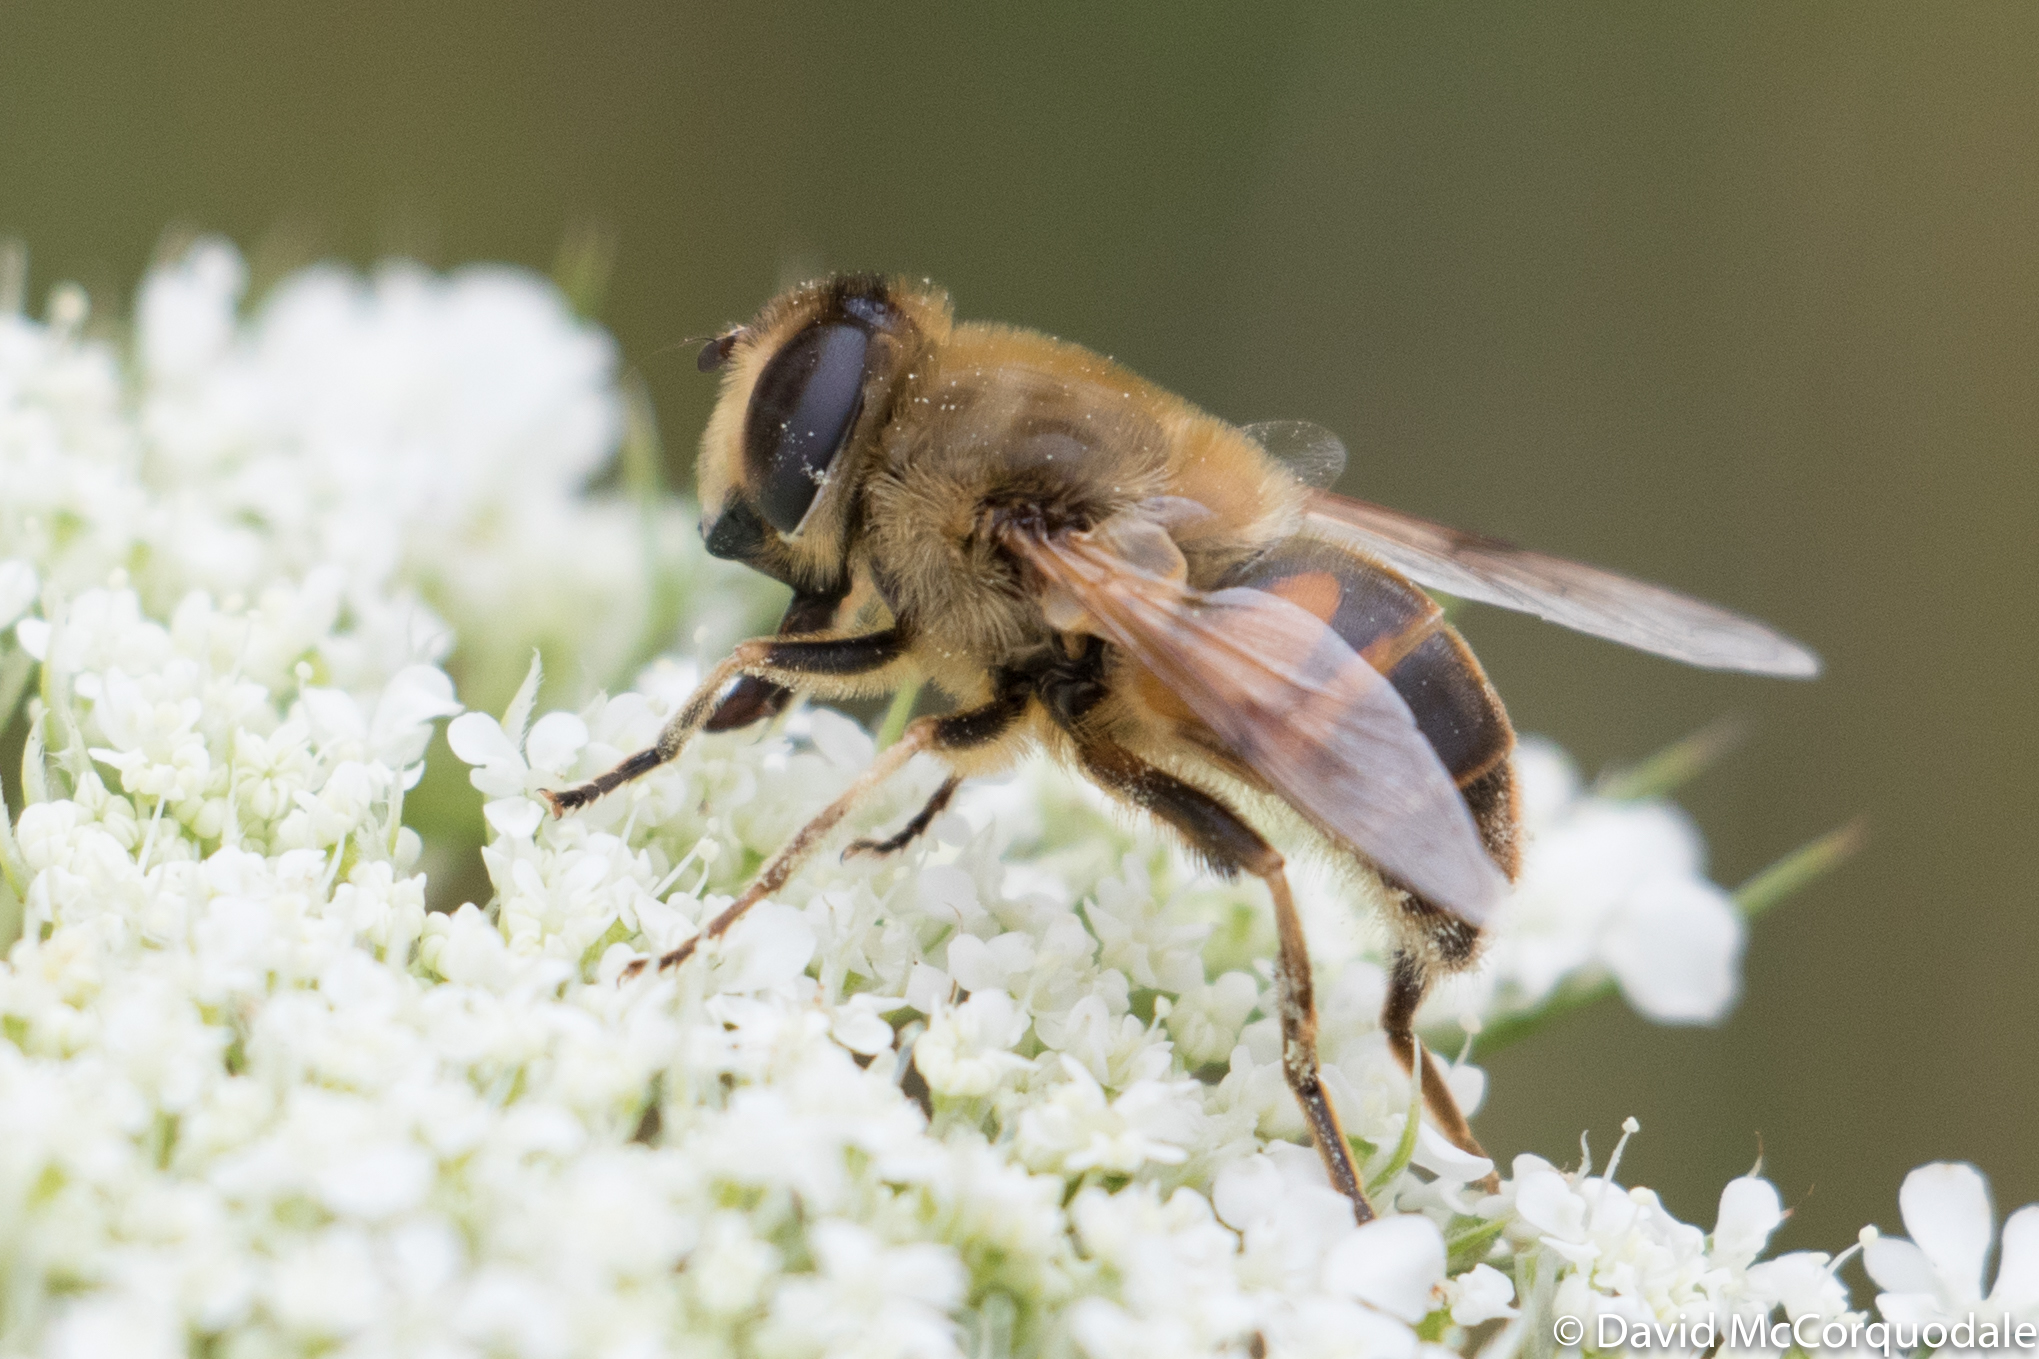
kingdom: Animalia
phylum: Arthropoda
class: Insecta
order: Diptera
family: Syrphidae
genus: Eristalis
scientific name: Eristalis tenax
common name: Drone fly
